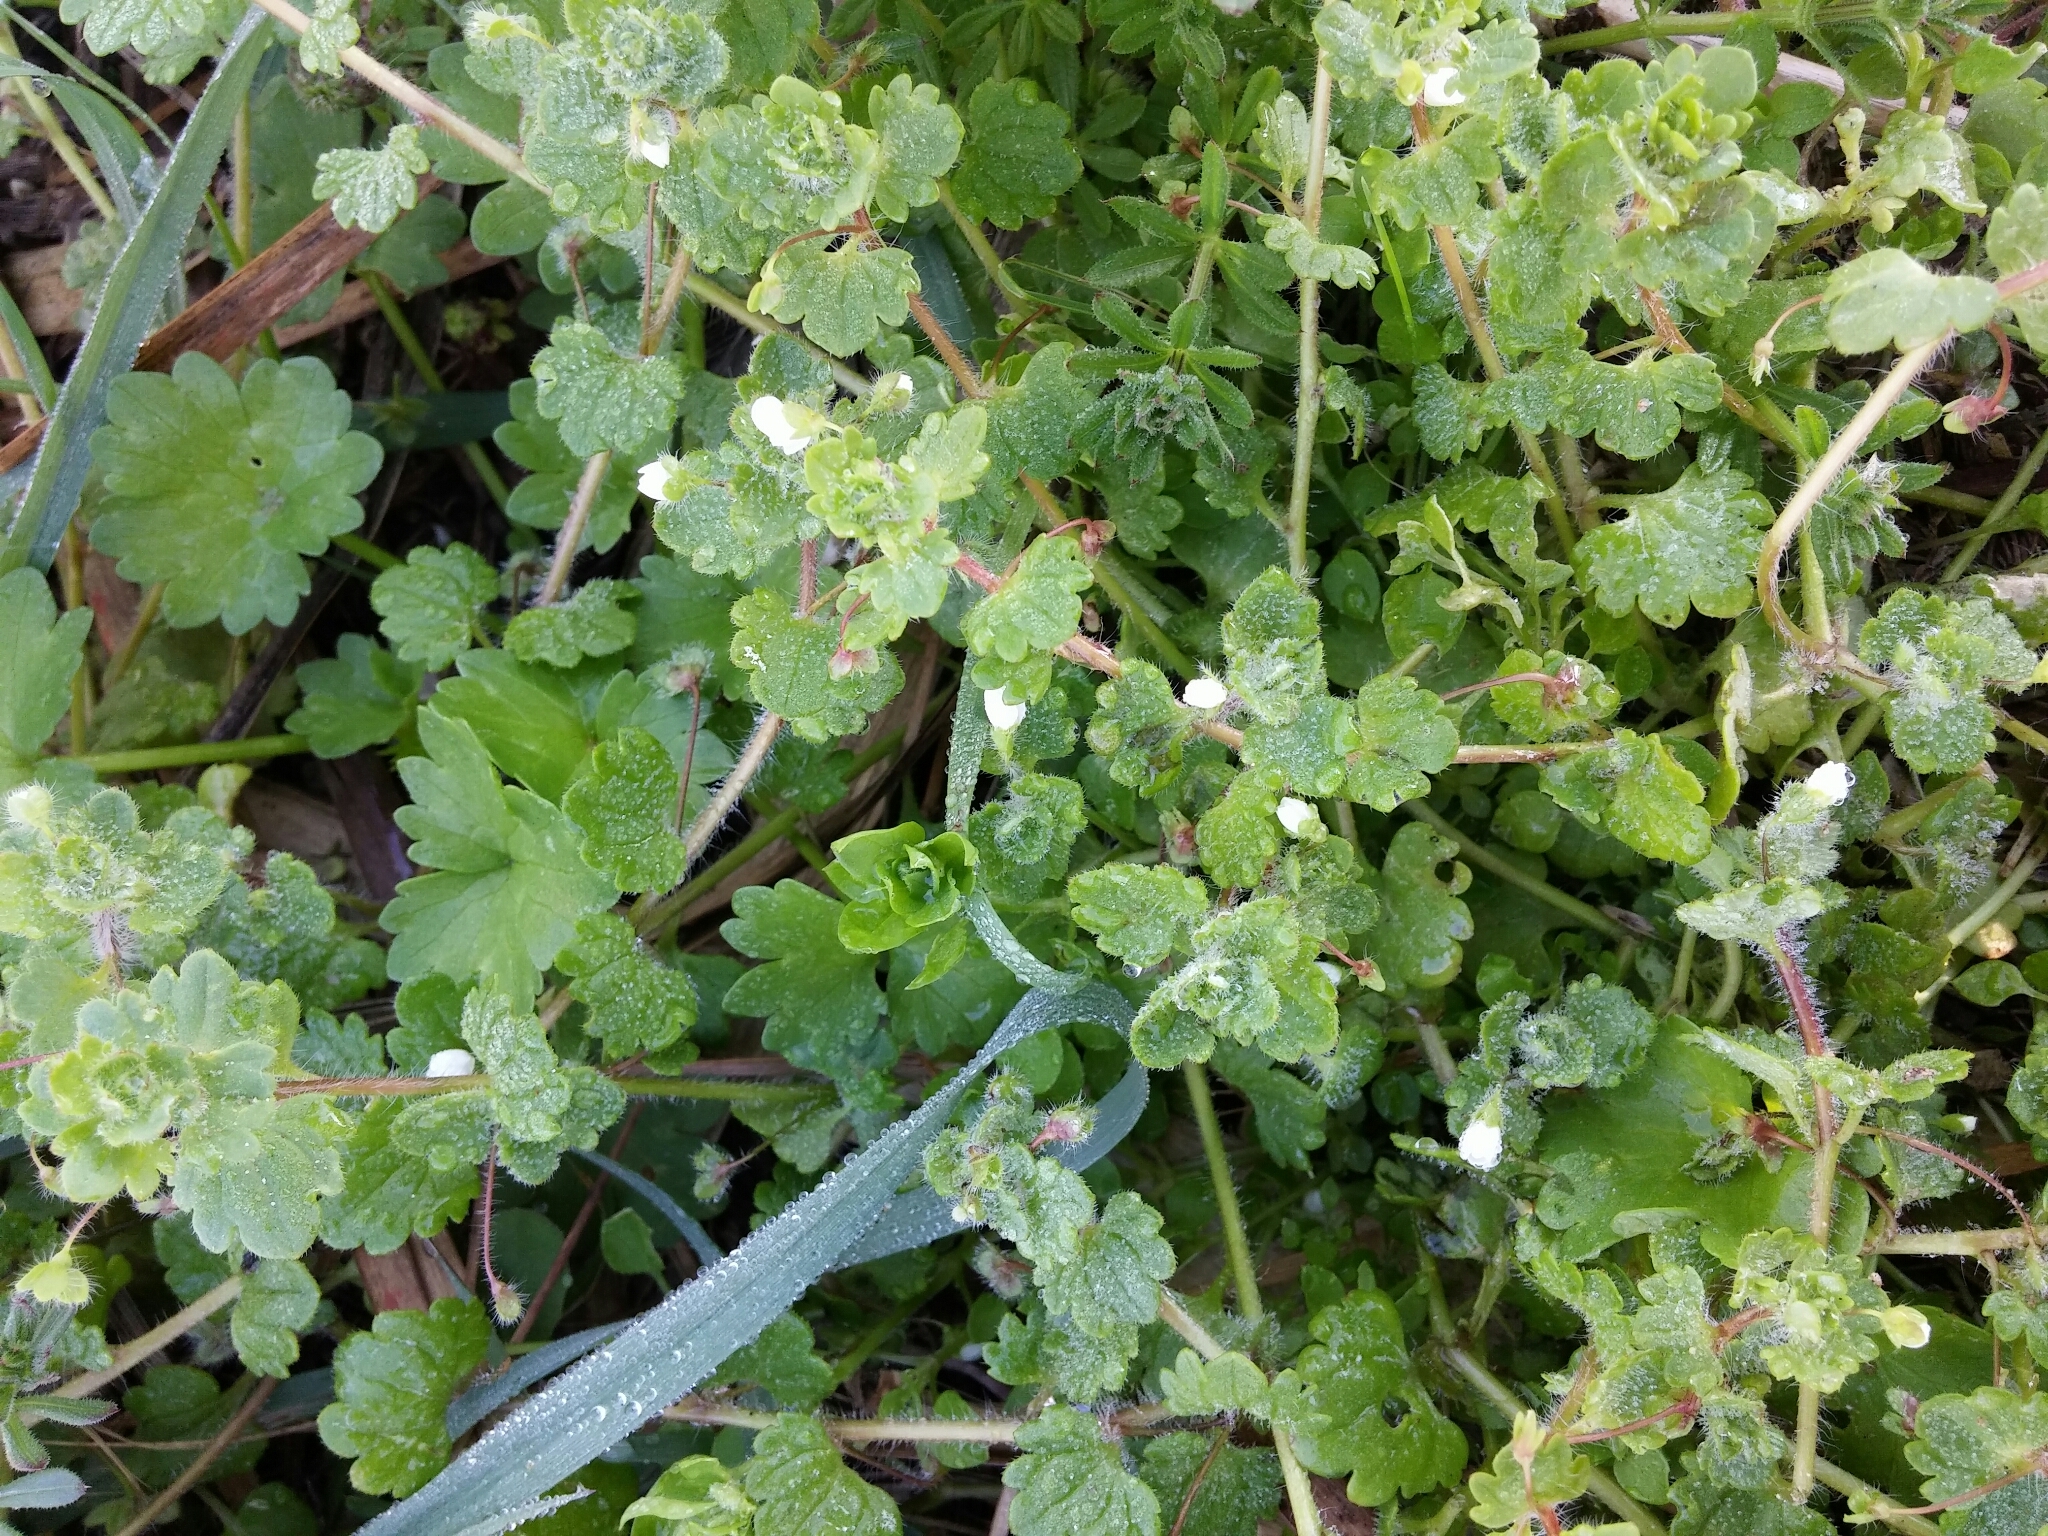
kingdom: Plantae
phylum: Tracheophyta
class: Magnoliopsida
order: Lamiales
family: Plantaginaceae
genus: Veronica
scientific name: Veronica cymbalaria
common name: Pale speedwell
